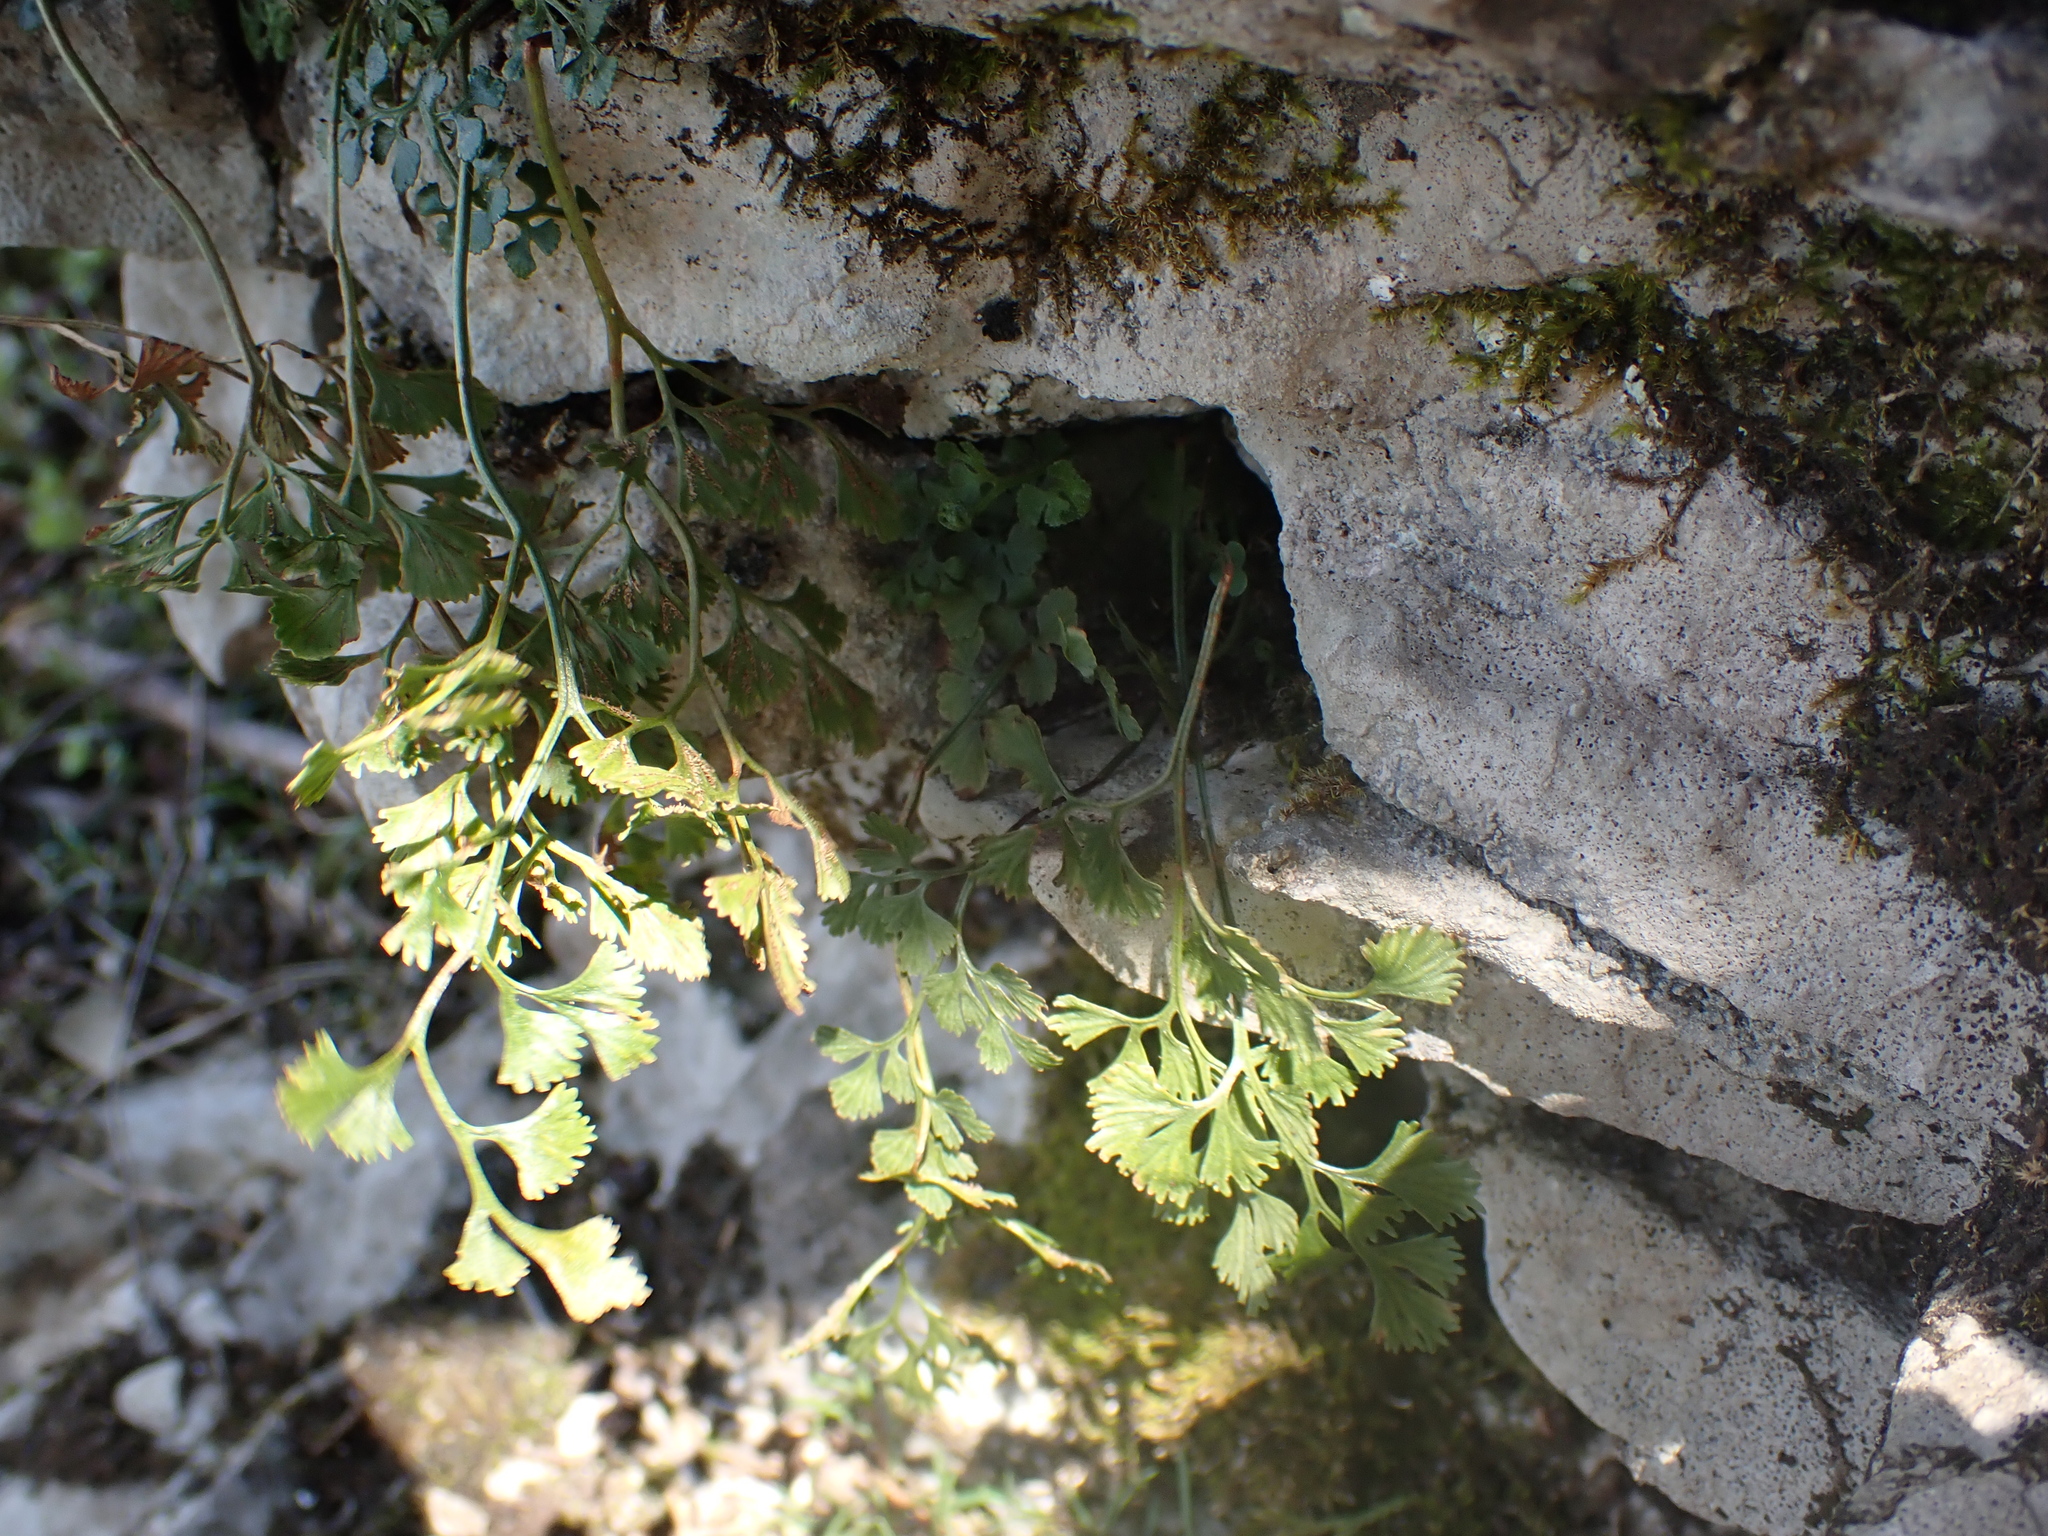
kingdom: Plantae
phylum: Tracheophyta
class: Polypodiopsida
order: Polypodiales
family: Aspleniaceae
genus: Asplenium
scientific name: Asplenium ruta-muraria
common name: Wall-rue
